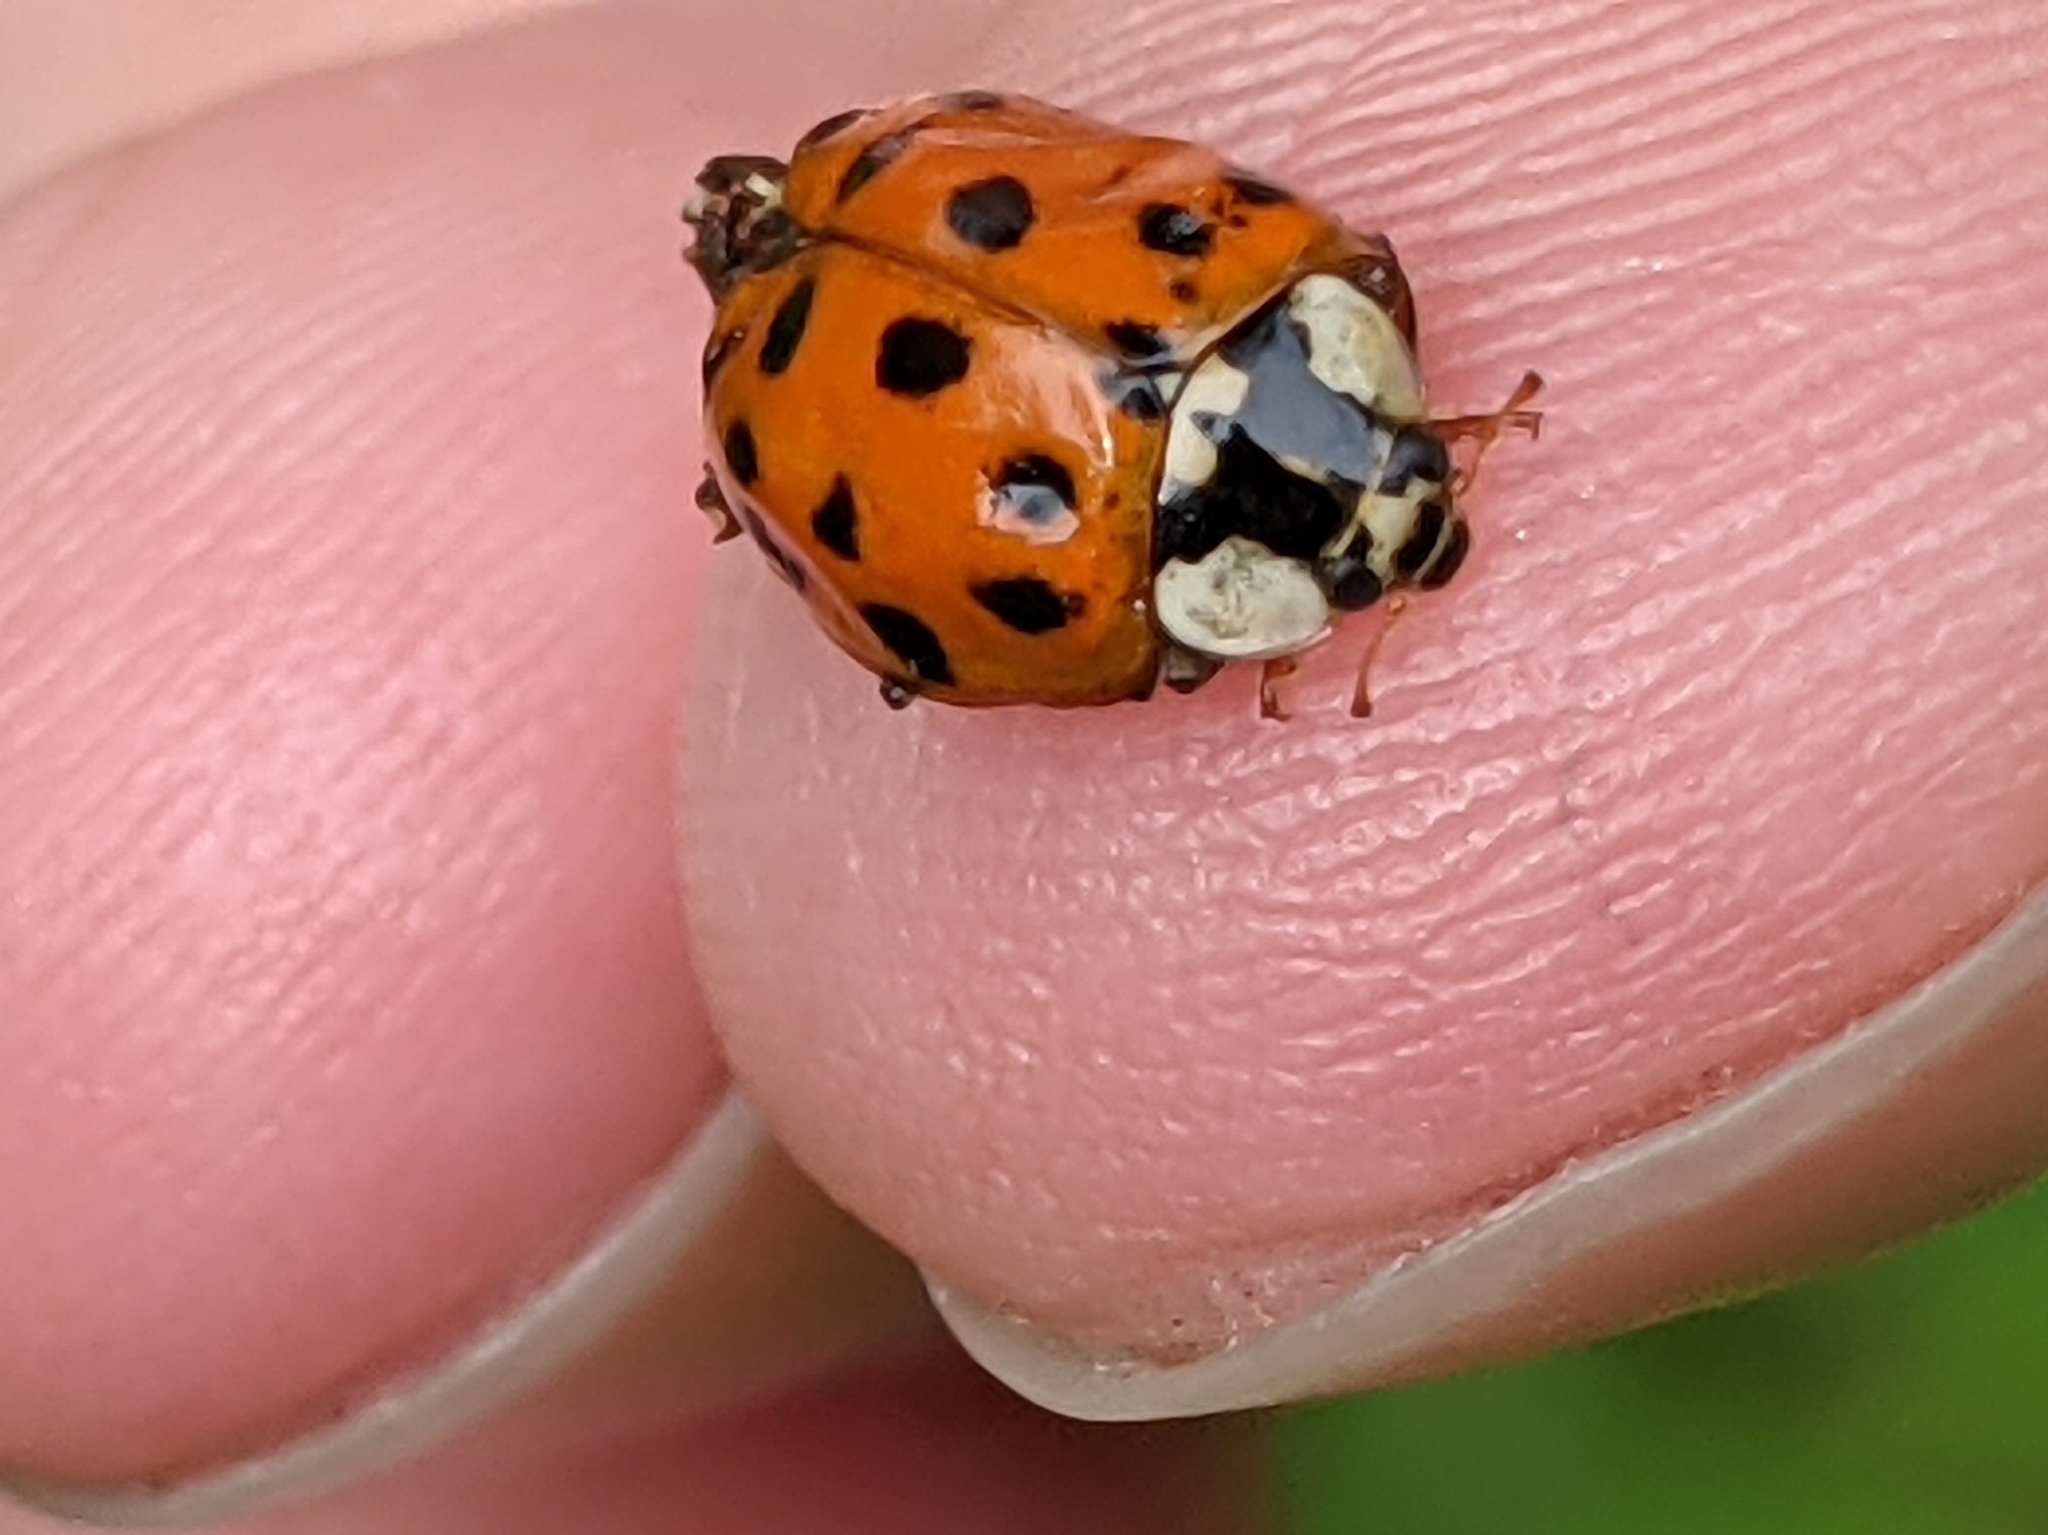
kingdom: Animalia
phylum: Arthropoda
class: Insecta
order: Coleoptera
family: Coccinellidae
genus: Harmonia
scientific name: Harmonia axyridis
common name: Harlequin ladybird
